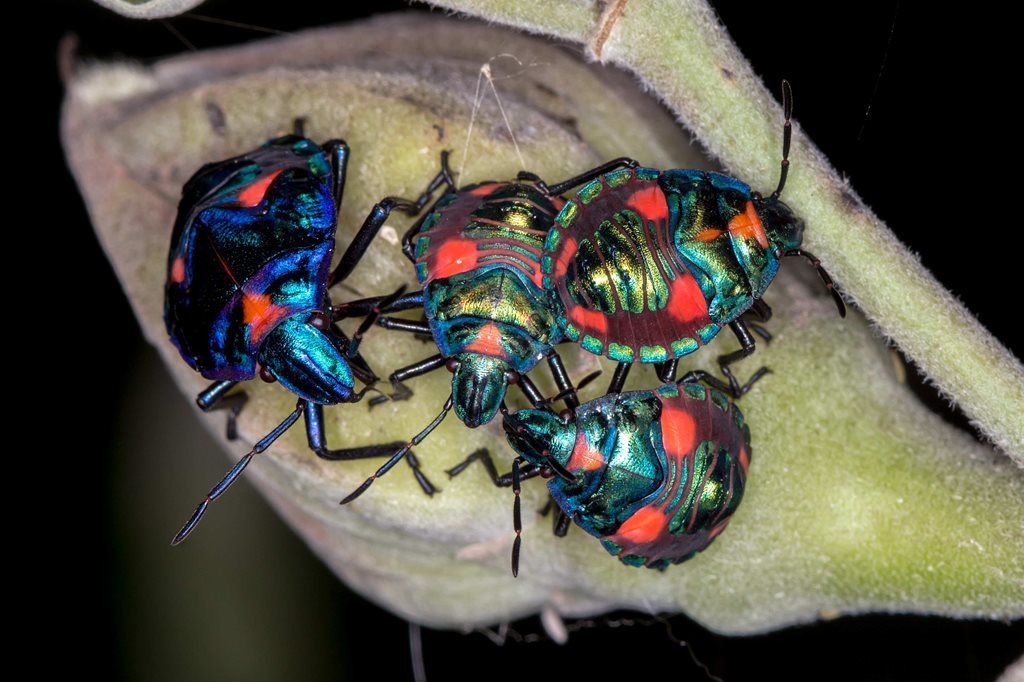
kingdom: Animalia
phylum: Arthropoda
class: Insecta
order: Hemiptera
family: Scutelleridae
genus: Tectocoris
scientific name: Tectocoris diophthalmus
